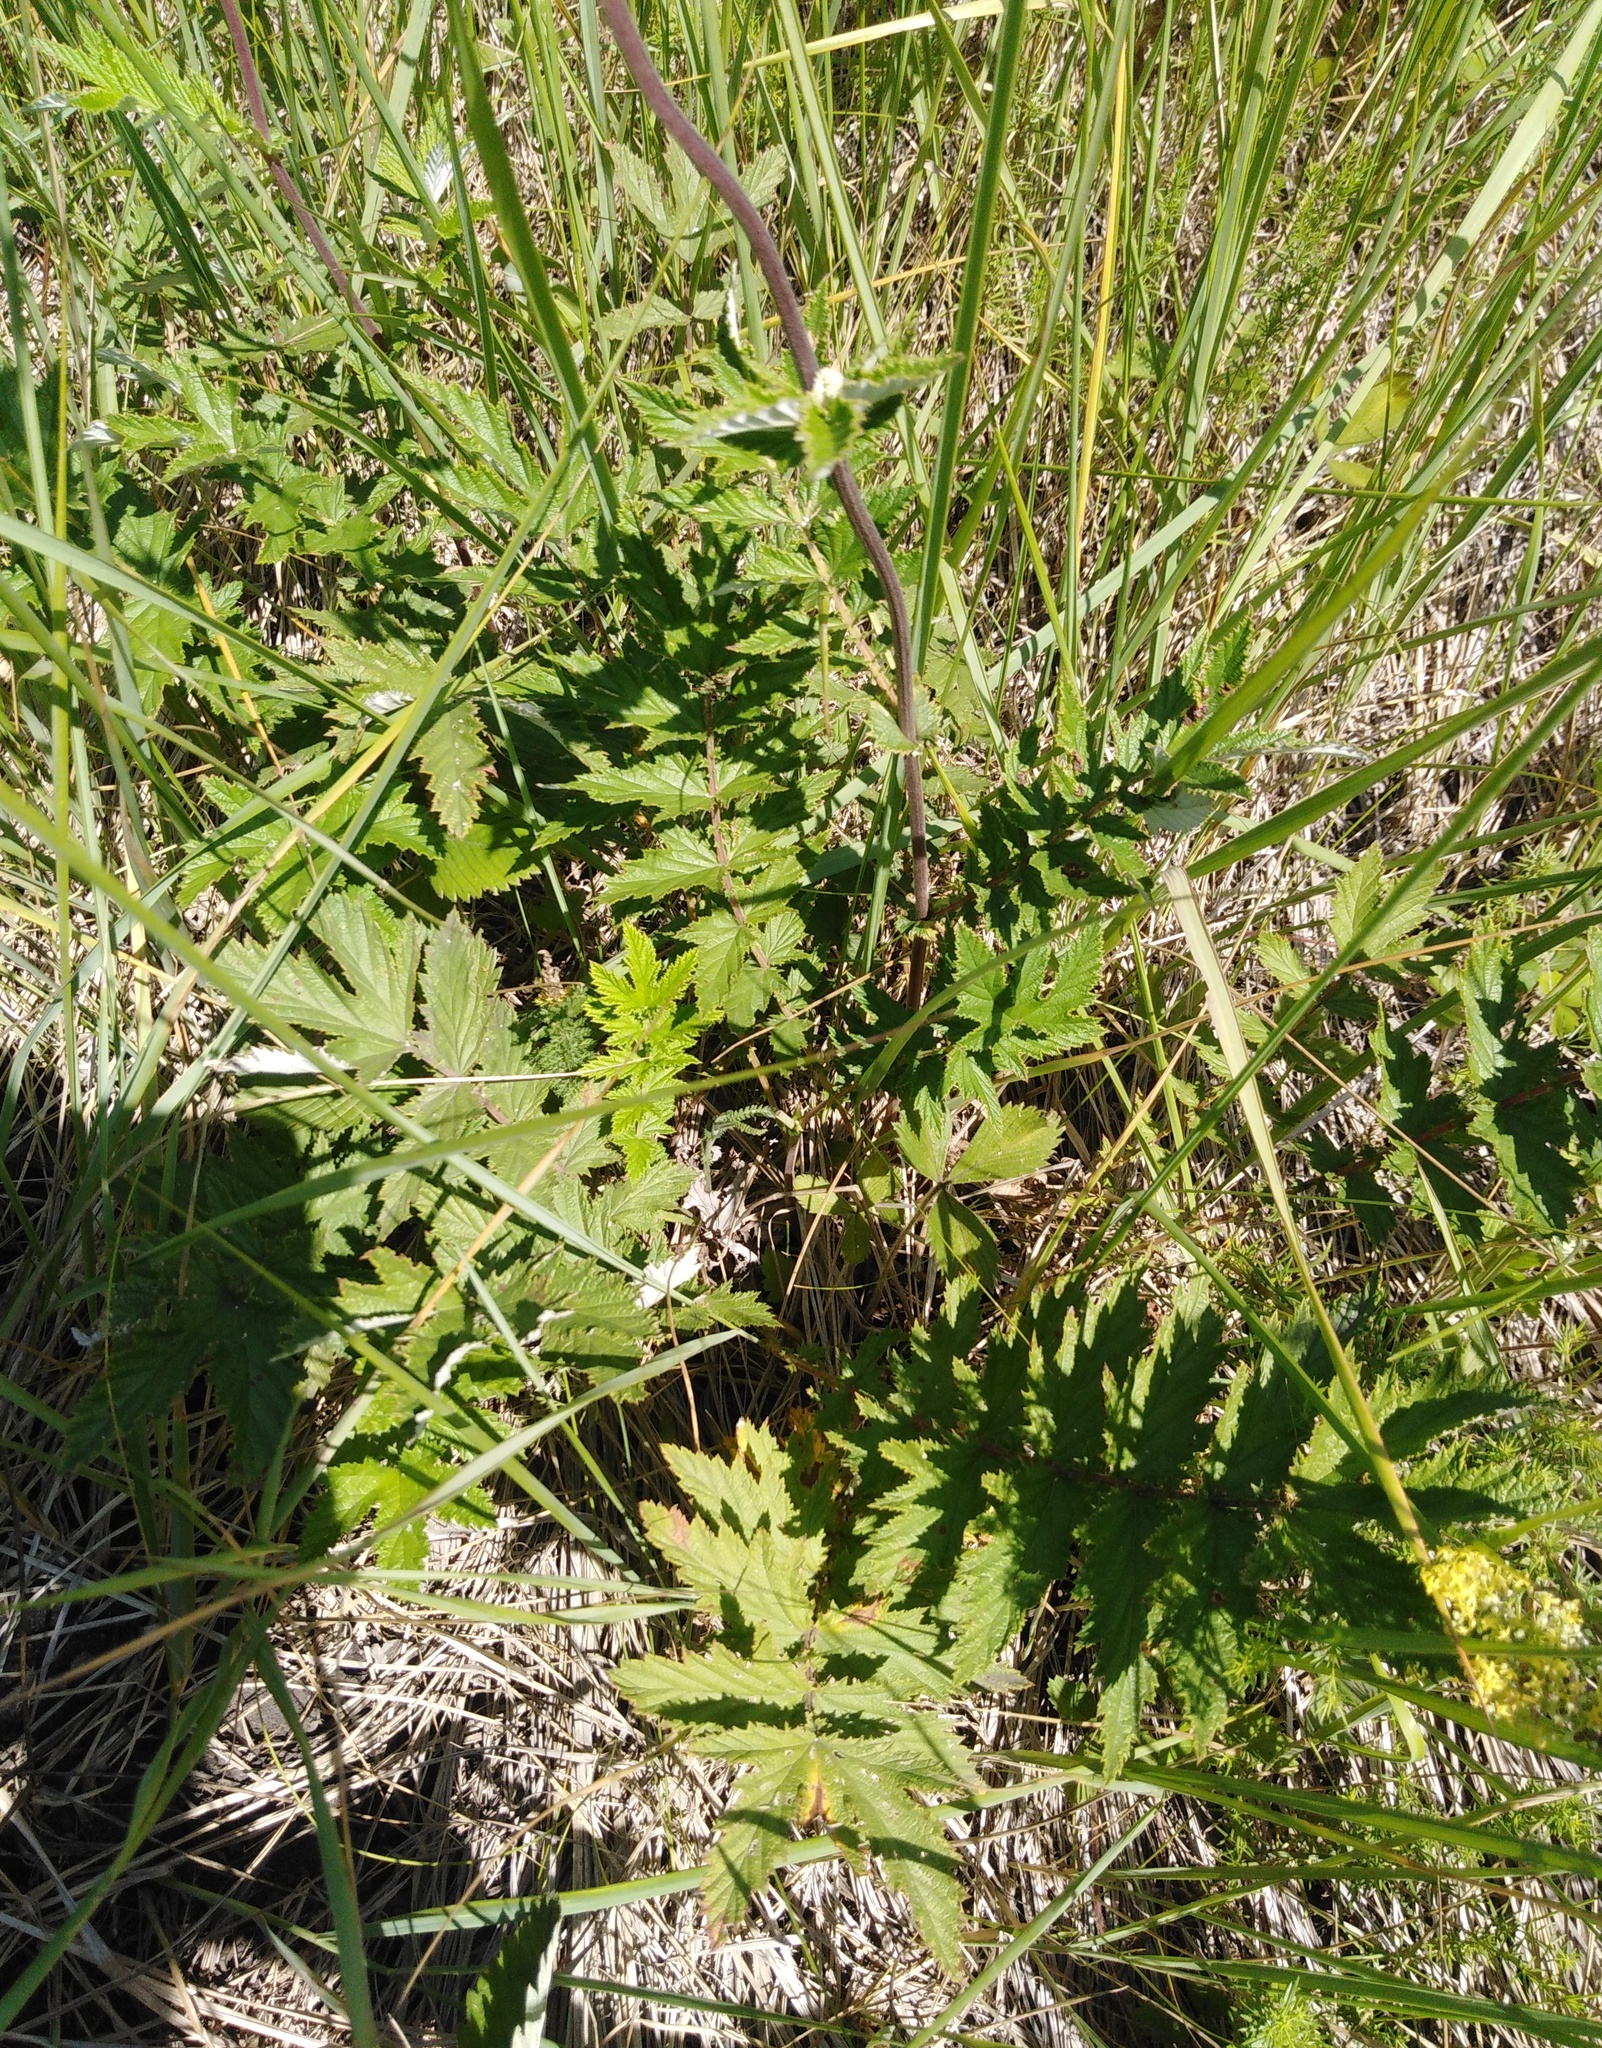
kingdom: Plantae
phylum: Tracheophyta
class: Magnoliopsida
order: Rosales
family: Rosaceae
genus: Filipendula
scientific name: Filipendula ulmaria
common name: Meadowsweet
